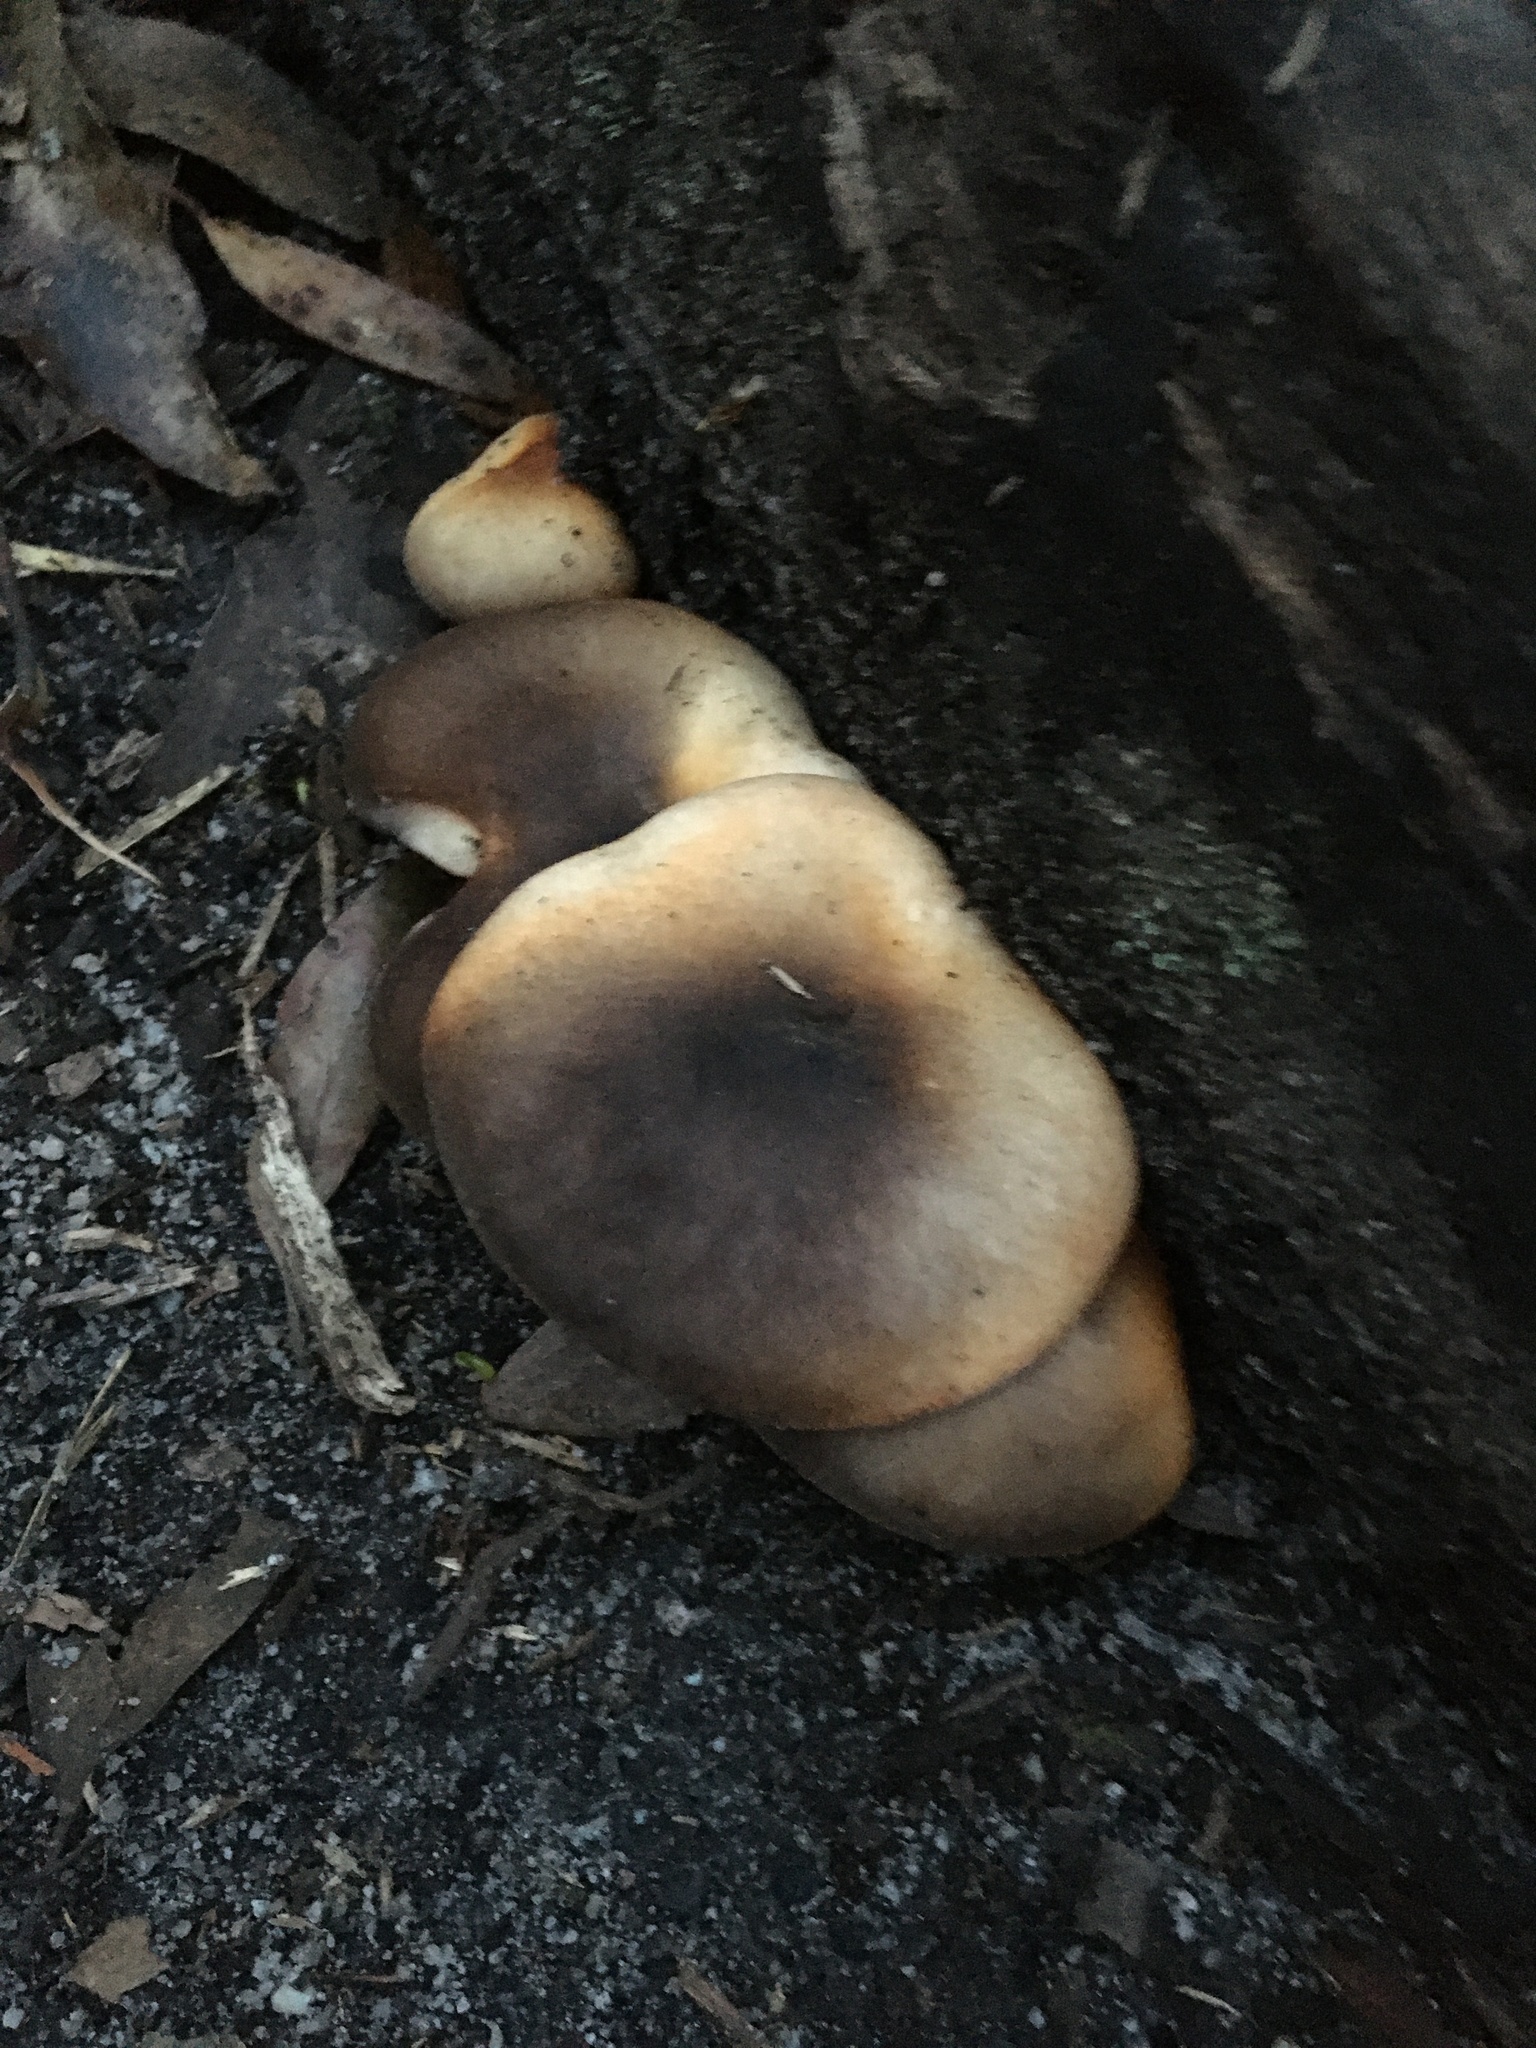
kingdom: Fungi
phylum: Basidiomycota
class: Agaricomycetes
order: Agaricales
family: Omphalotaceae
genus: Omphalotus
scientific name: Omphalotus nidiformis
